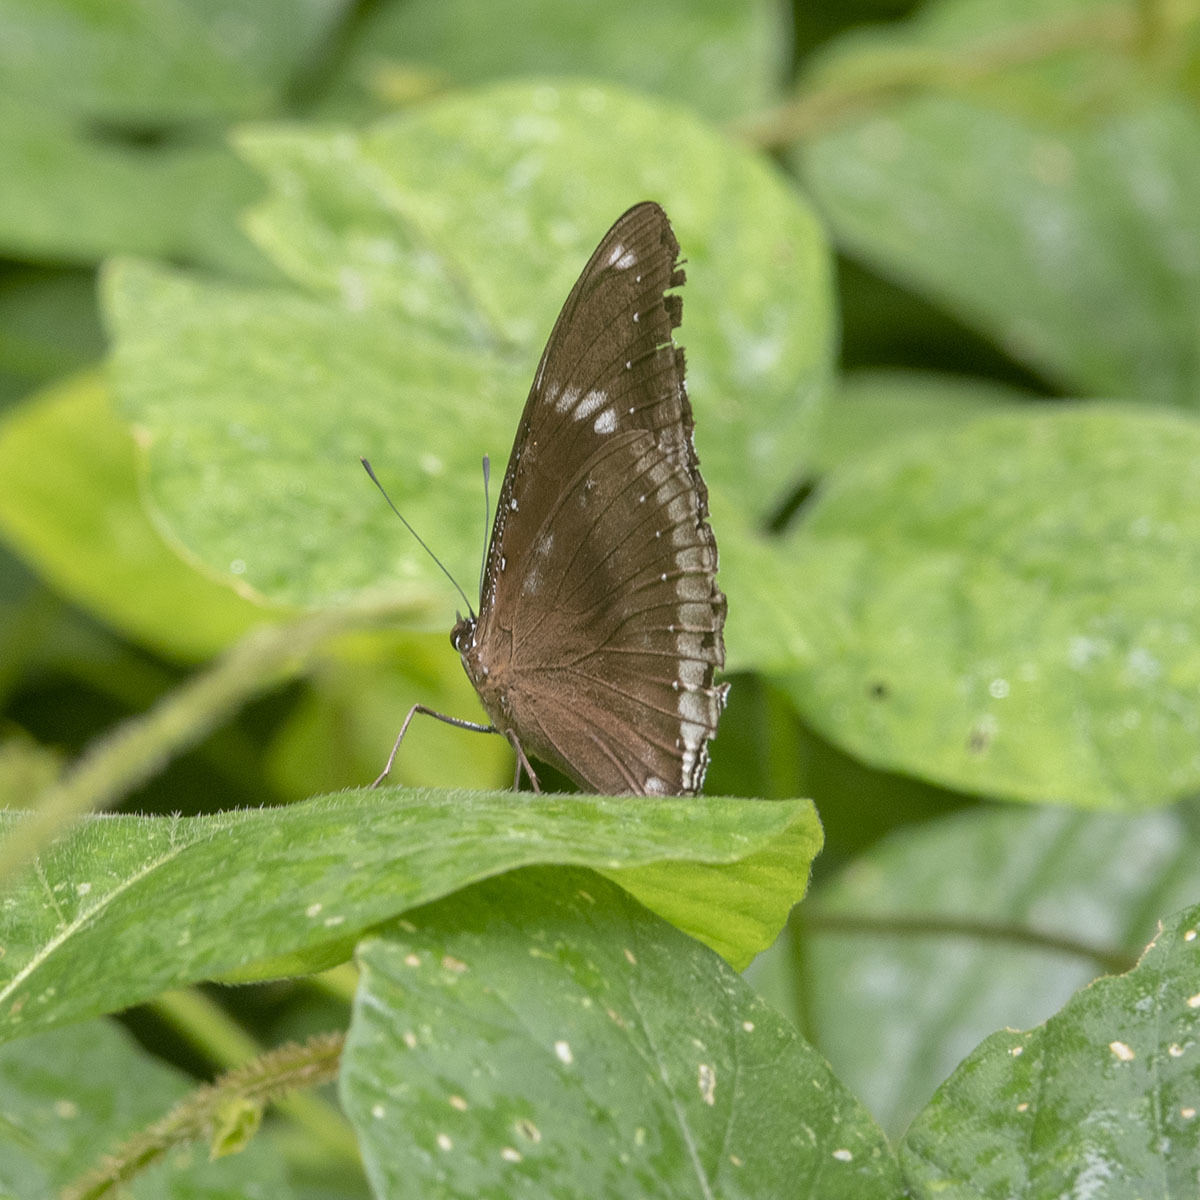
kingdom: Animalia
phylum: Arthropoda
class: Insecta
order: Lepidoptera
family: Nymphalidae
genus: Hypolimnas
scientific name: Hypolimnas bolina
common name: Great eggfly
